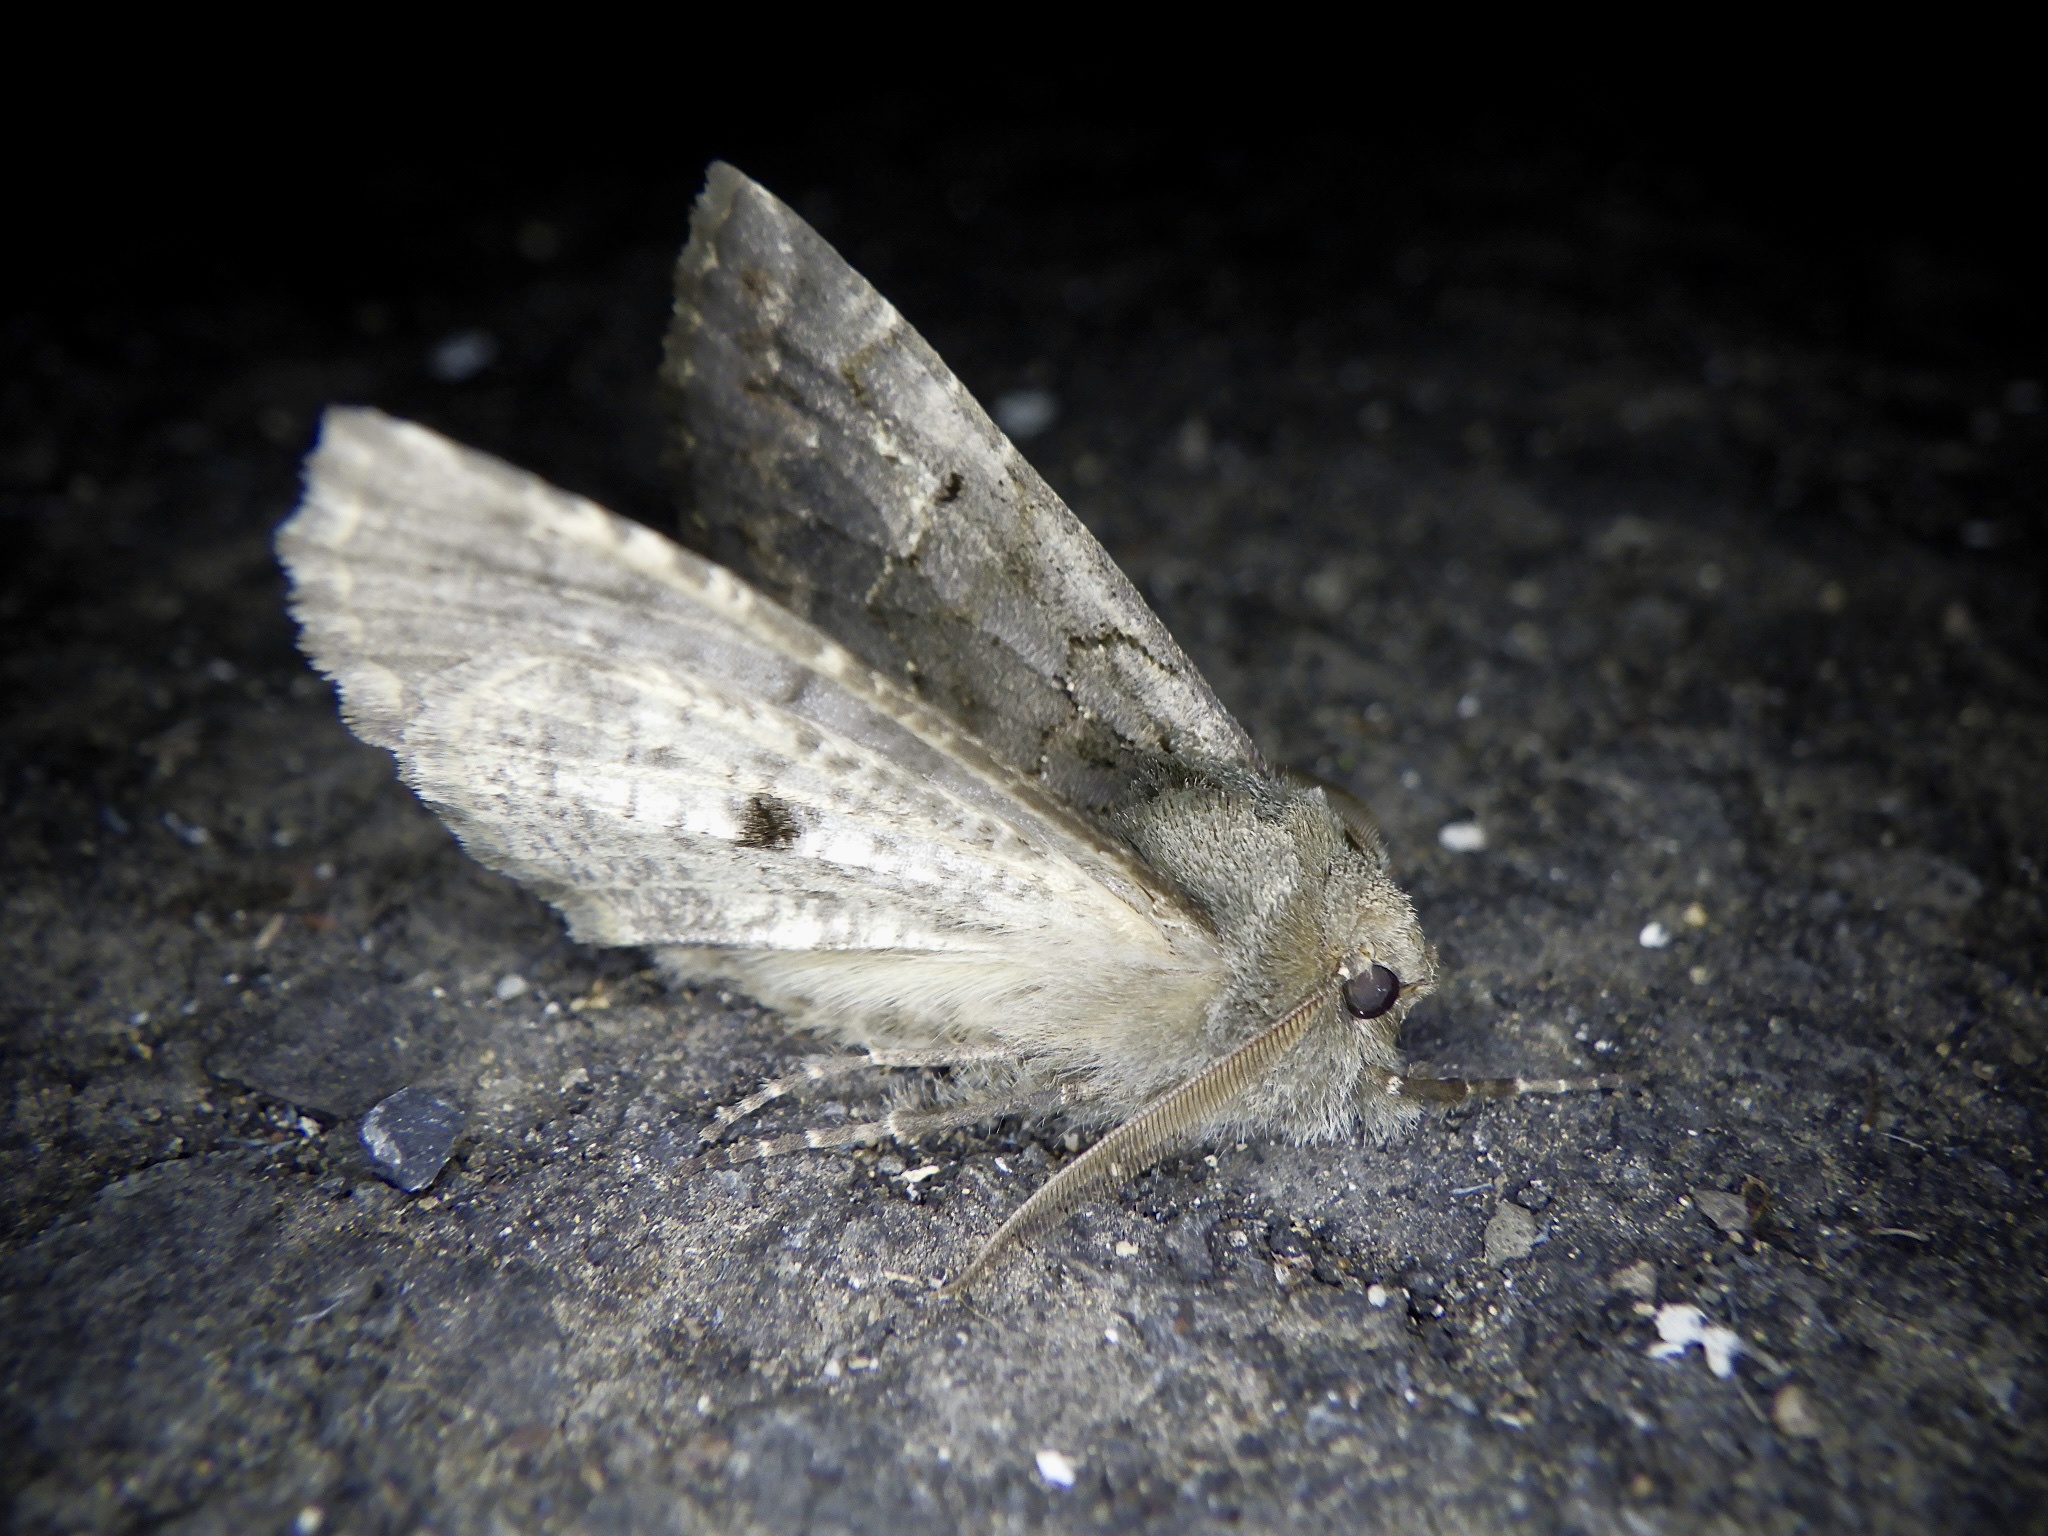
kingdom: Animalia
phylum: Arthropoda
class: Insecta
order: Lepidoptera
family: Geometridae
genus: Pachyligia
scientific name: Pachyligia dolosa
